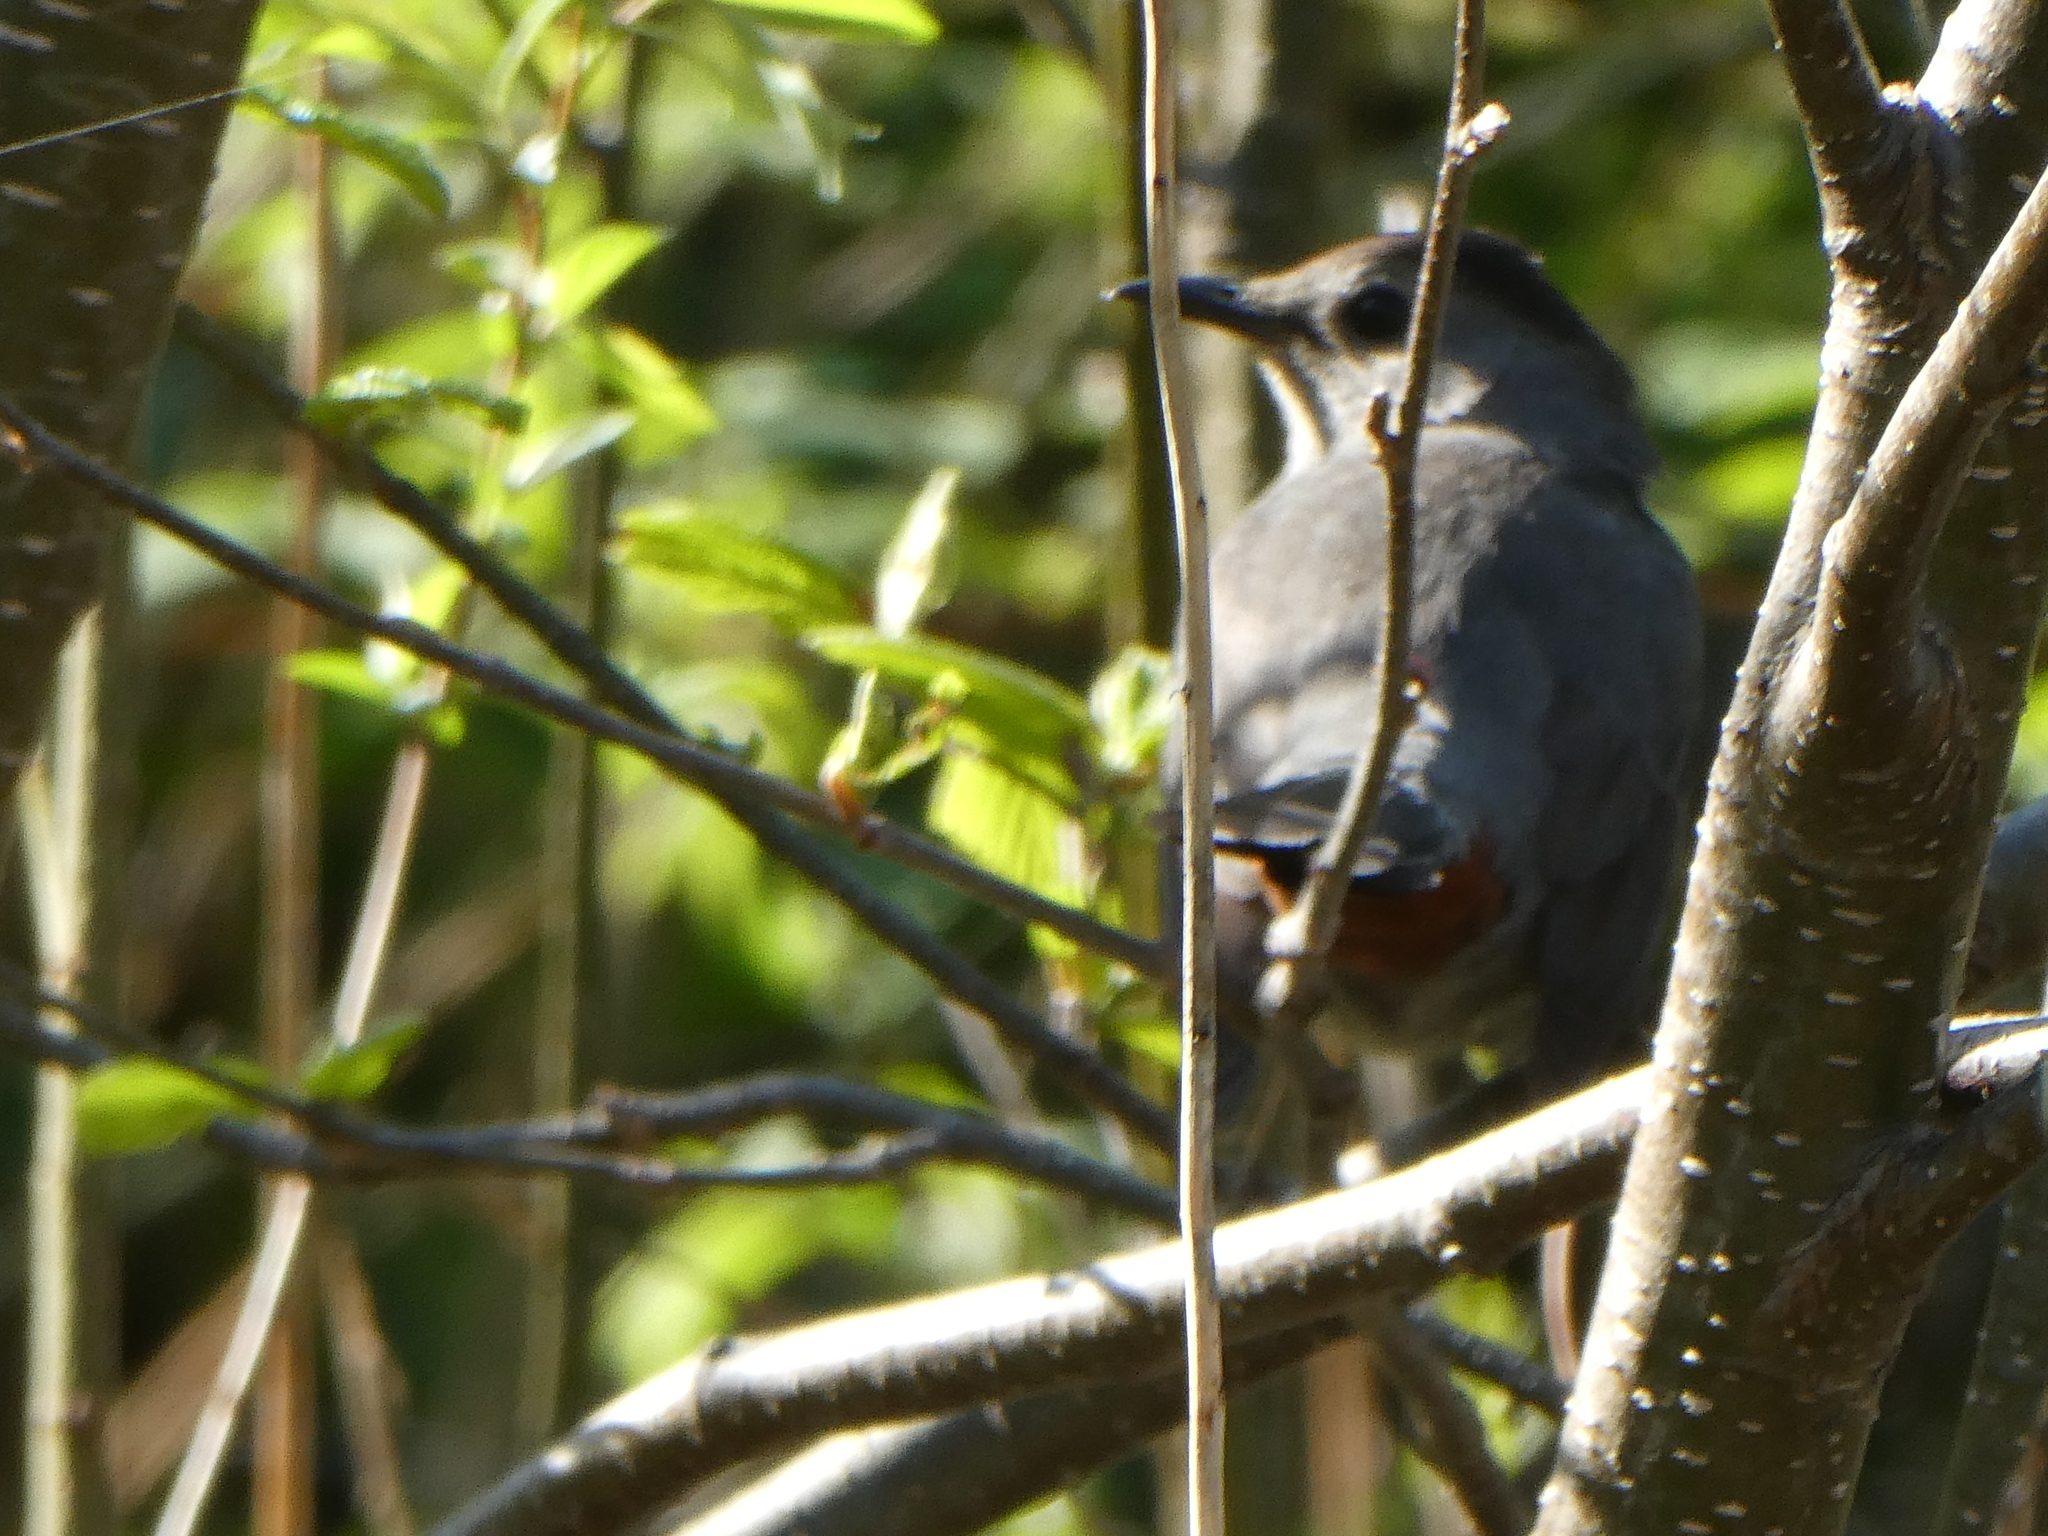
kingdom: Animalia
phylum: Chordata
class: Aves
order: Passeriformes
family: Mimidae
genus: Dumetella
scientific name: Dumetella carolinensis
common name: Gray catbird
